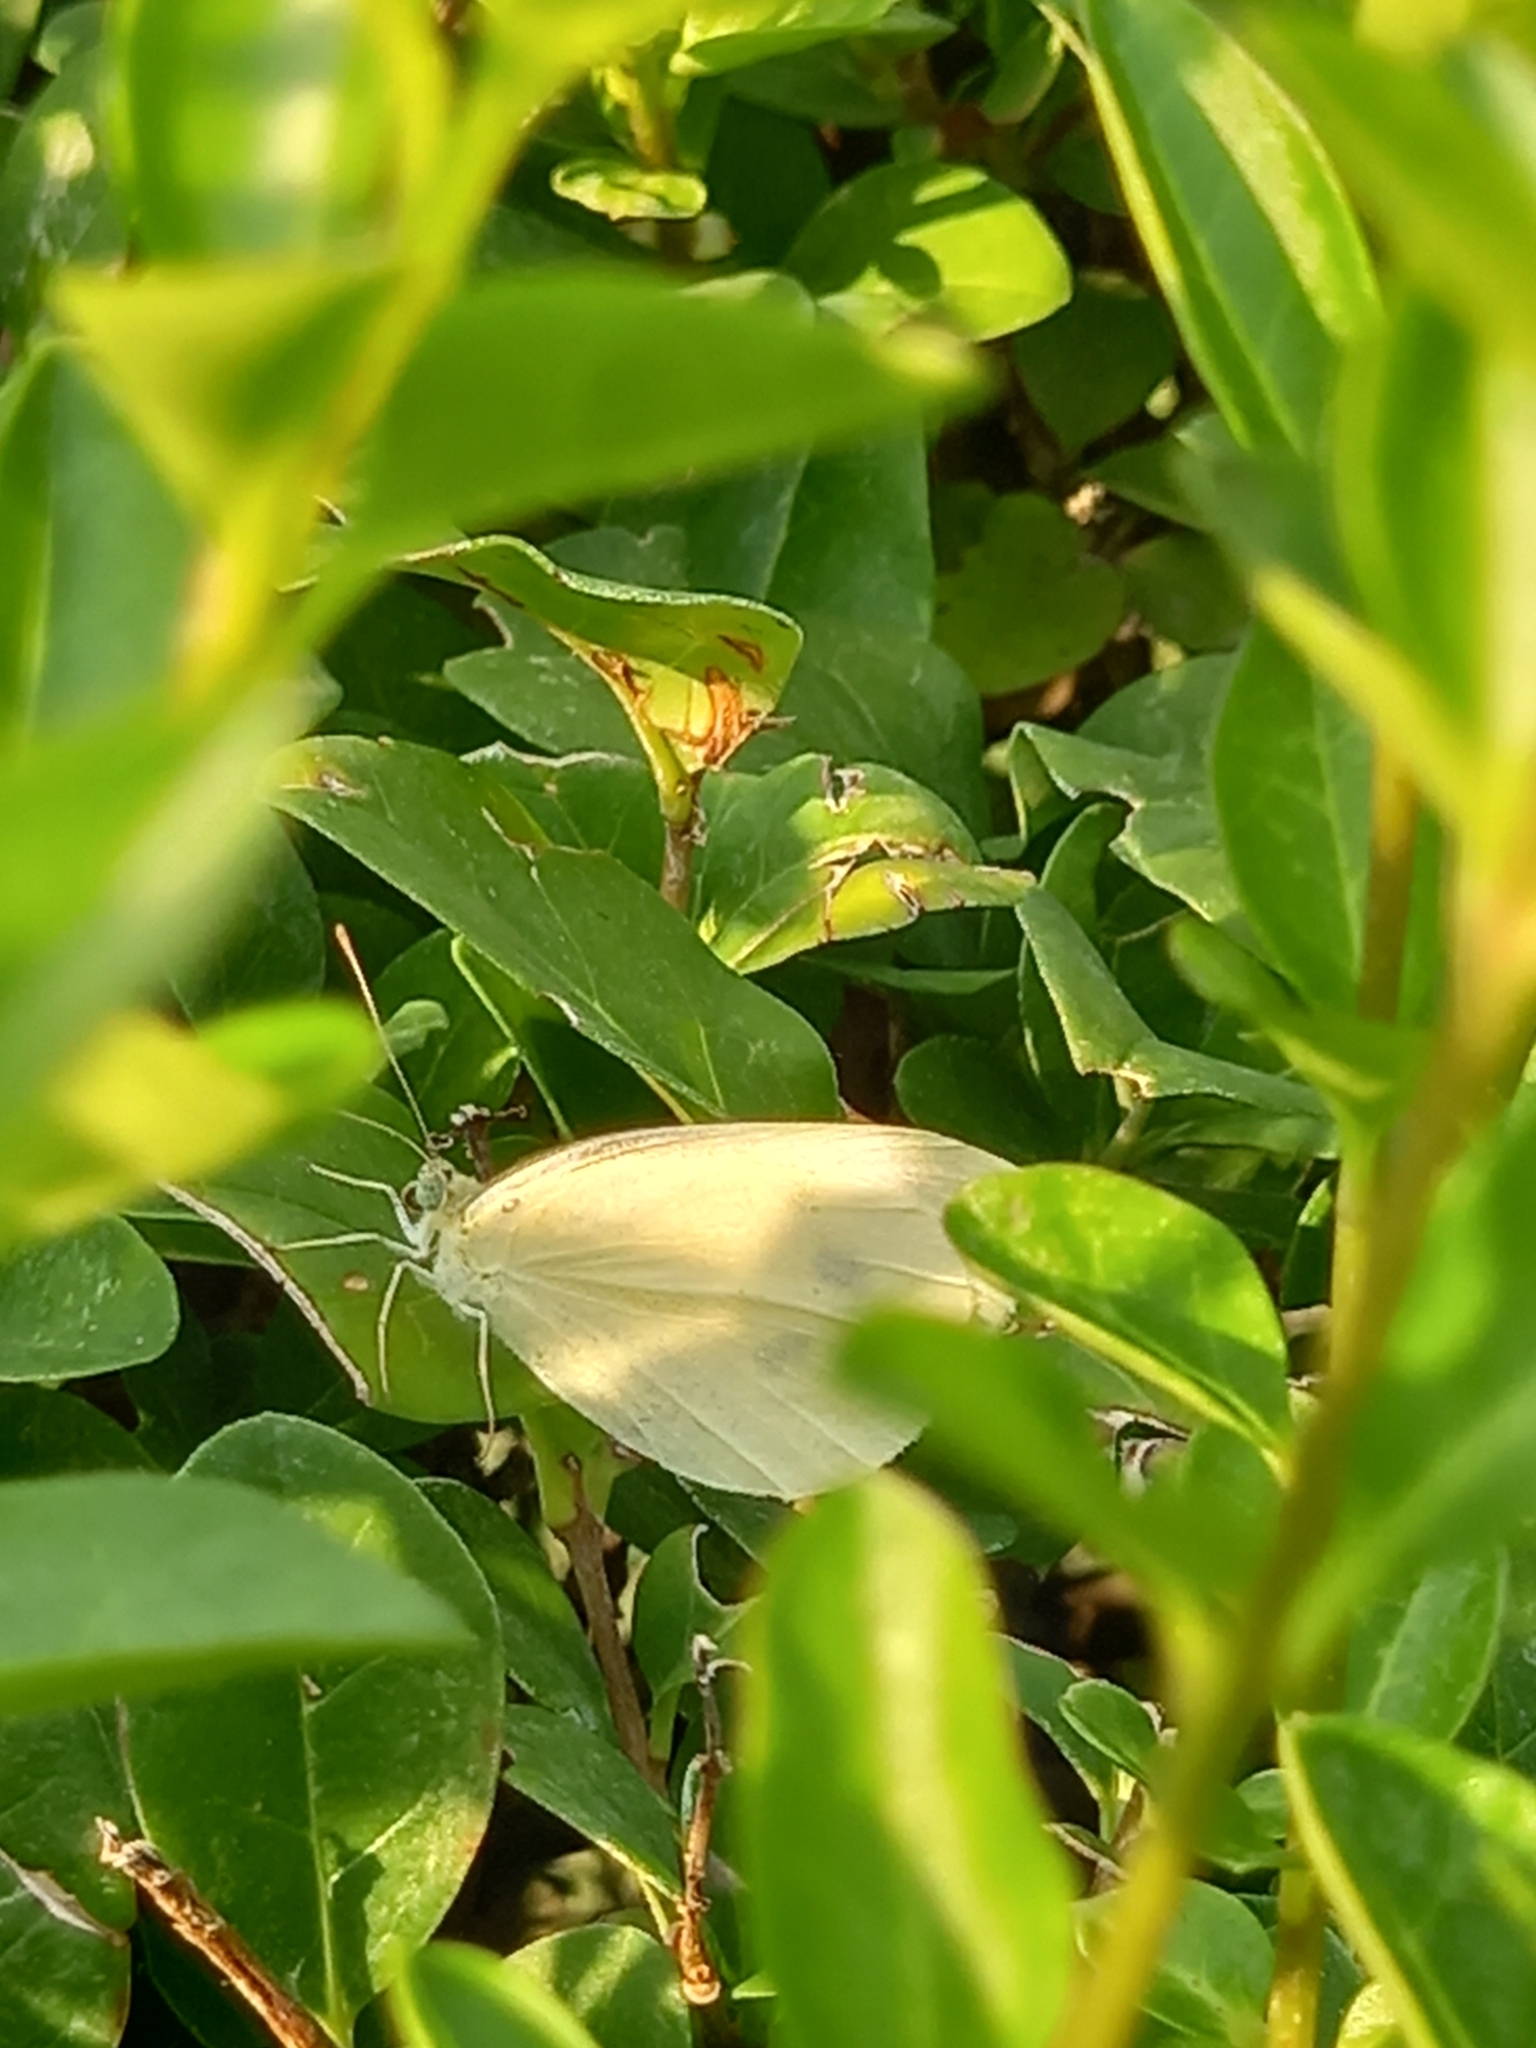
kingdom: Animalia
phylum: Arthropoda
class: Insecta
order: Lepidoptera
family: Pieridae
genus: Pieris
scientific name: Pieris rapae
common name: Small white
